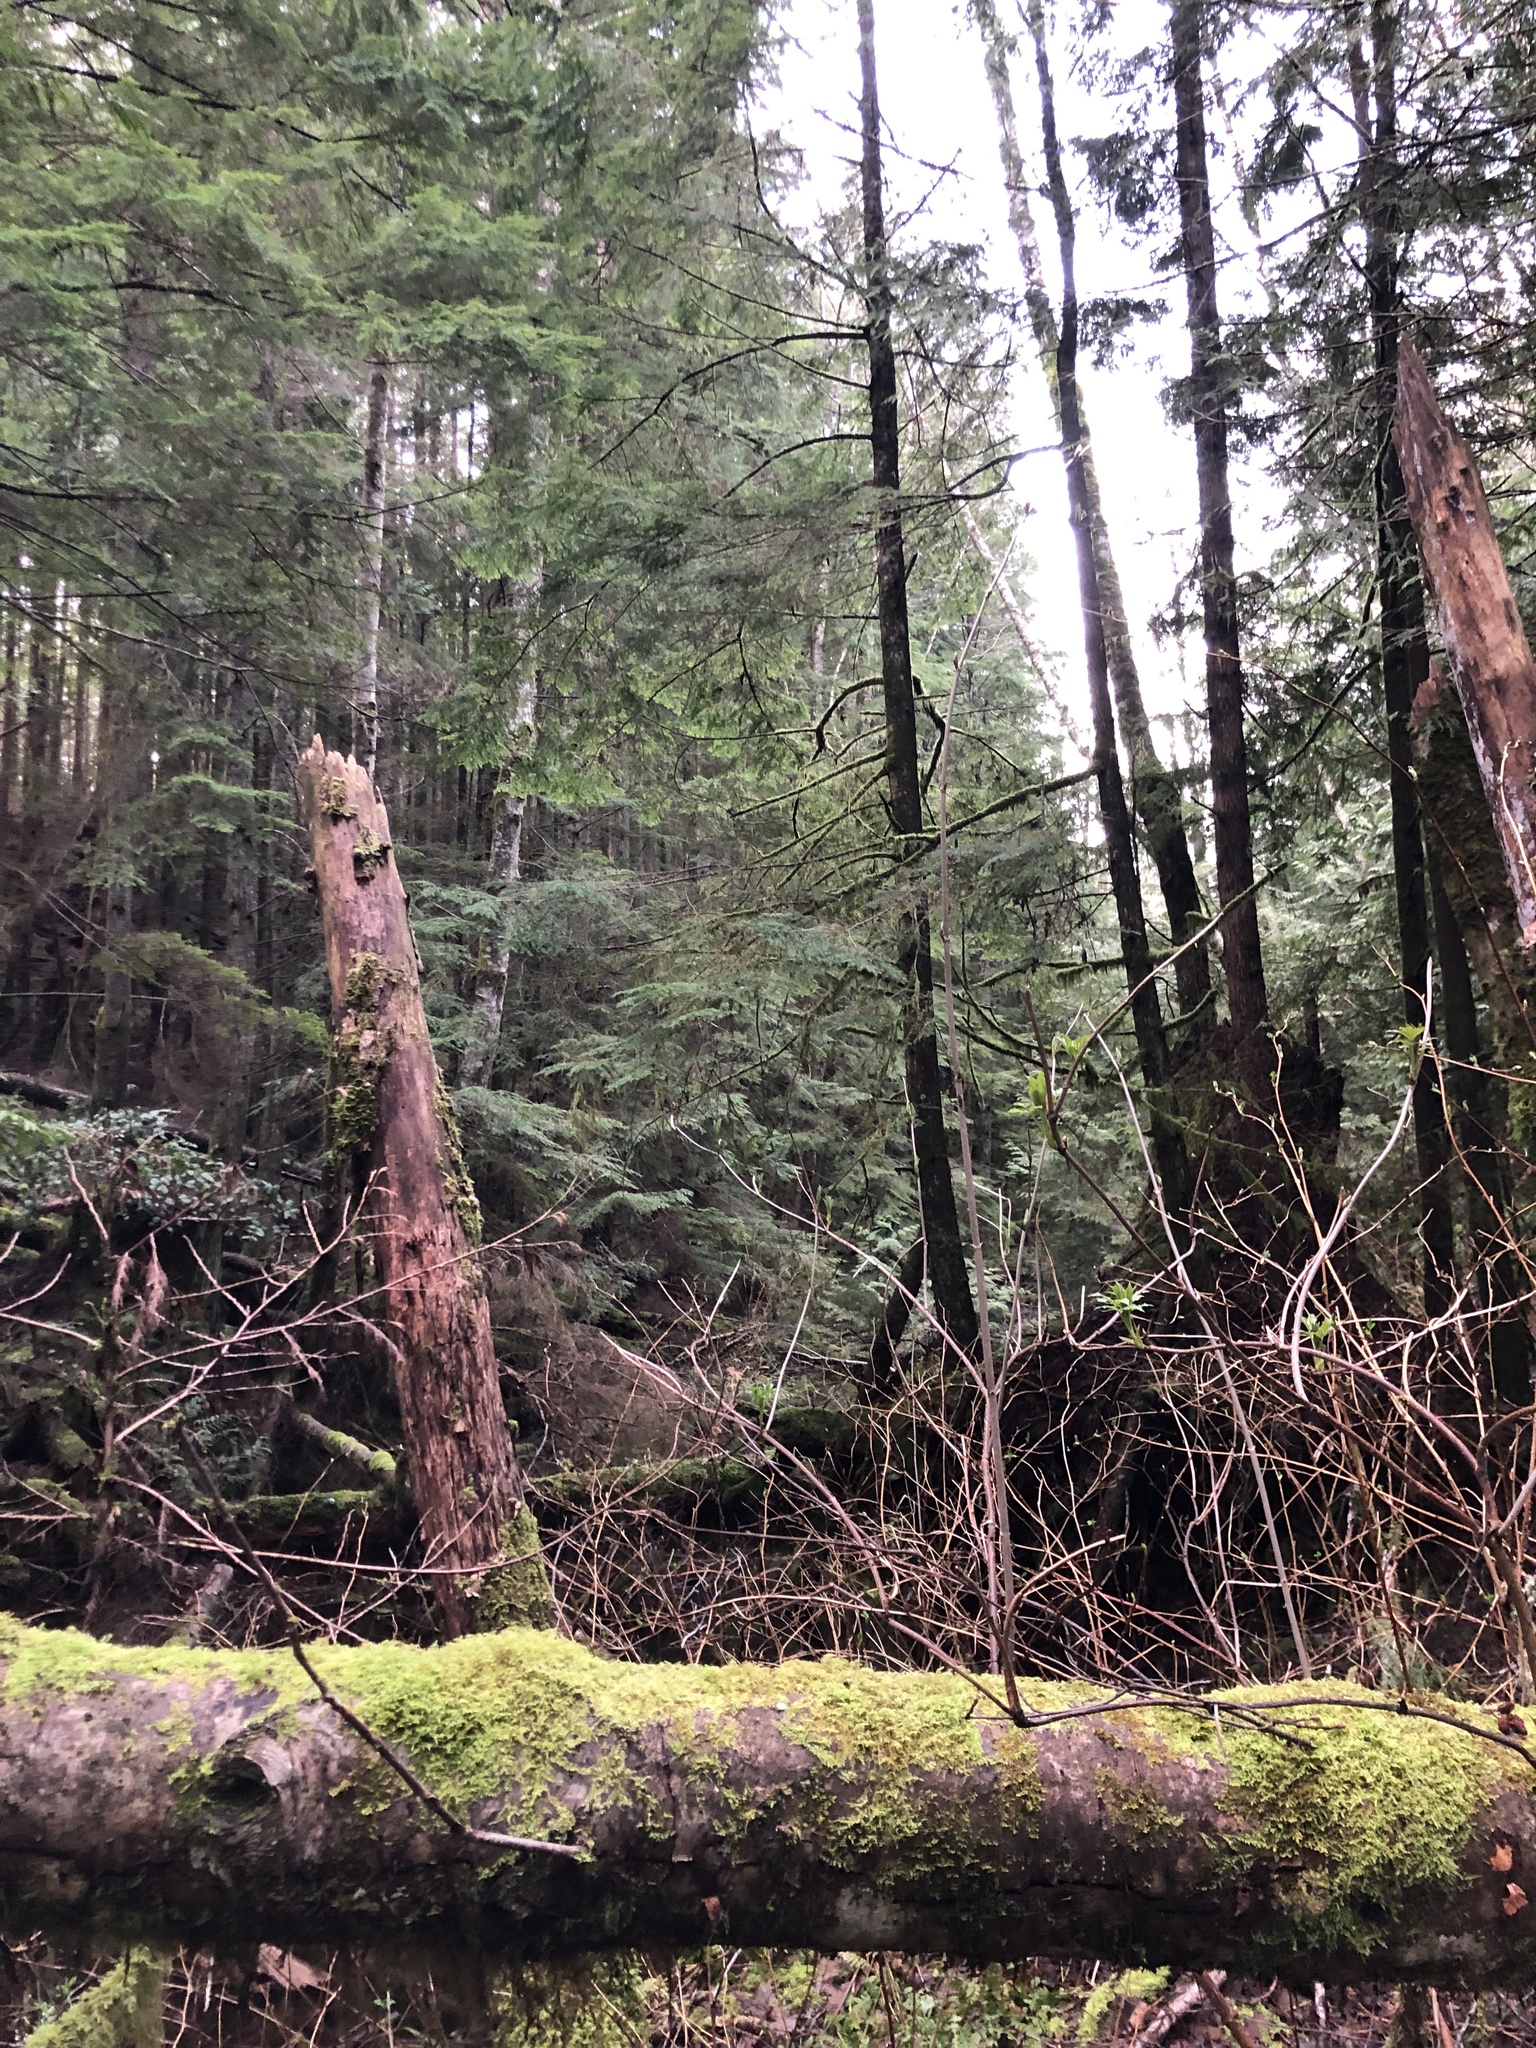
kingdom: Plantae
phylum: Tracheophyta
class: Pinopsida
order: Pinales
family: Pinaceae
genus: Tsuga
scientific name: Tsuga heterophylla
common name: Western hemlock
